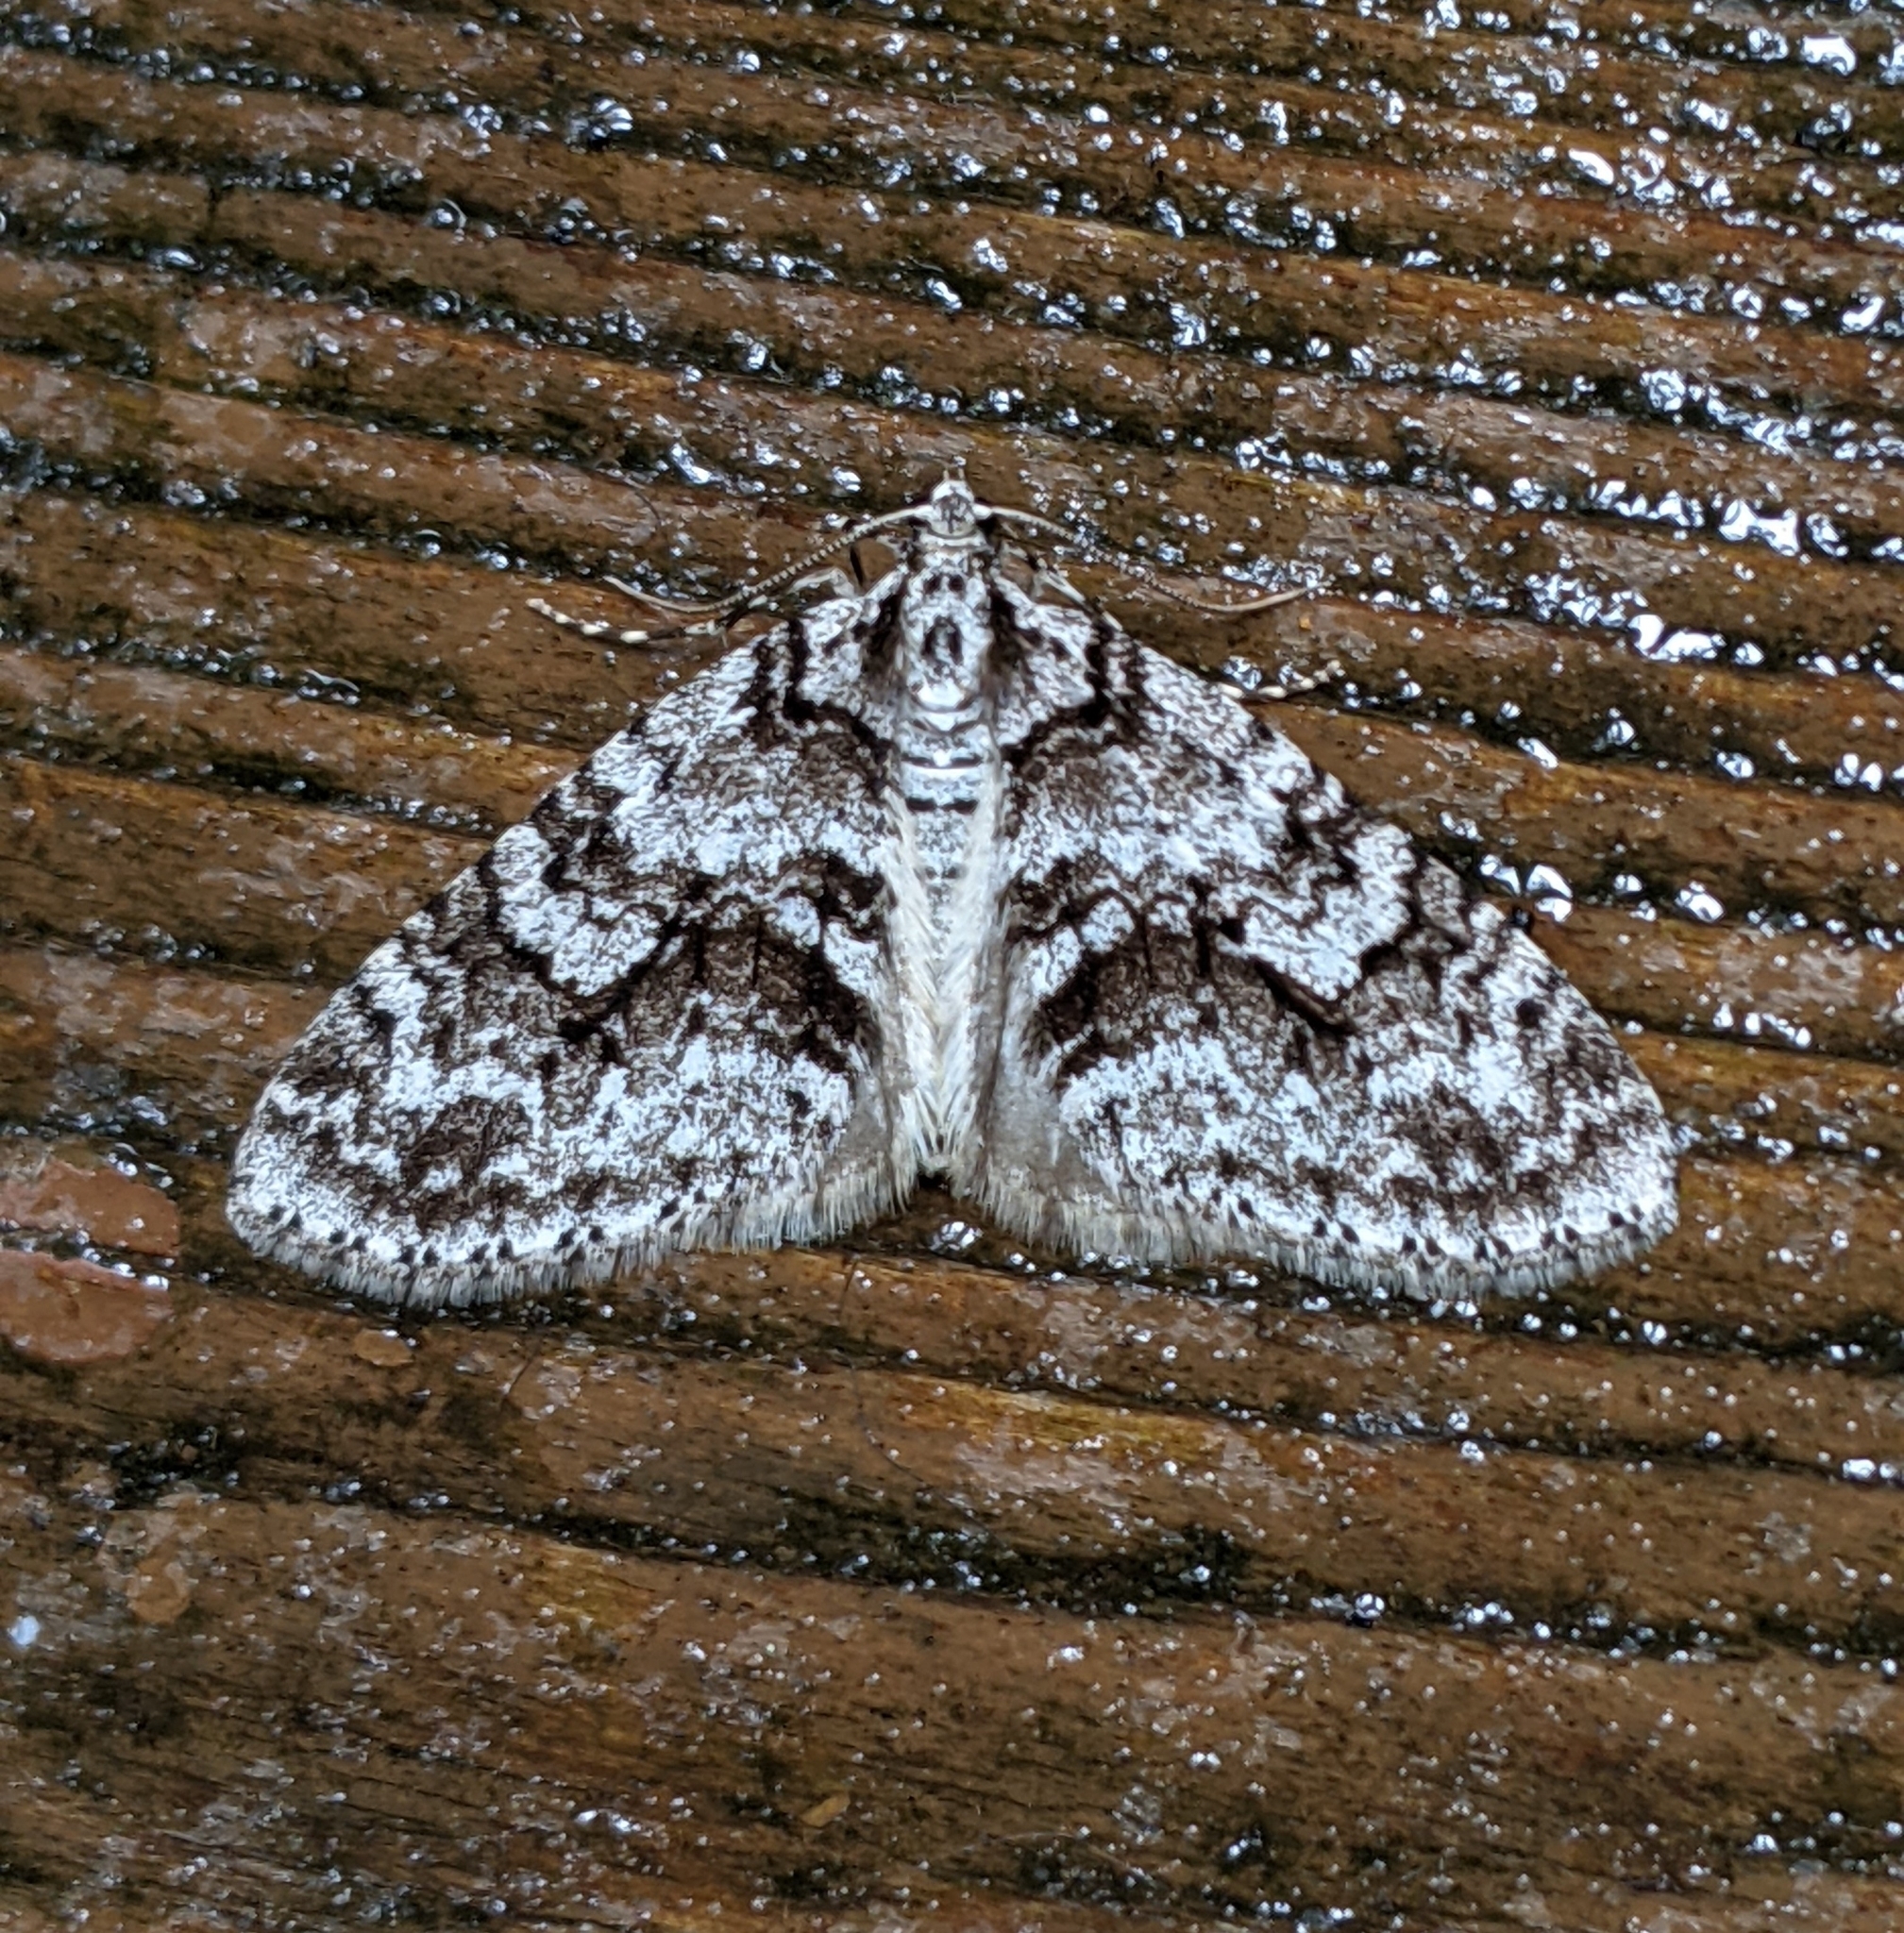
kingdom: Animalia
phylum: Arthropoda
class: Insecta
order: Lepidoptera
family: Geometridae
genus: Cladara
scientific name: Cladara limitaria
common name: Mottled gray carpet
